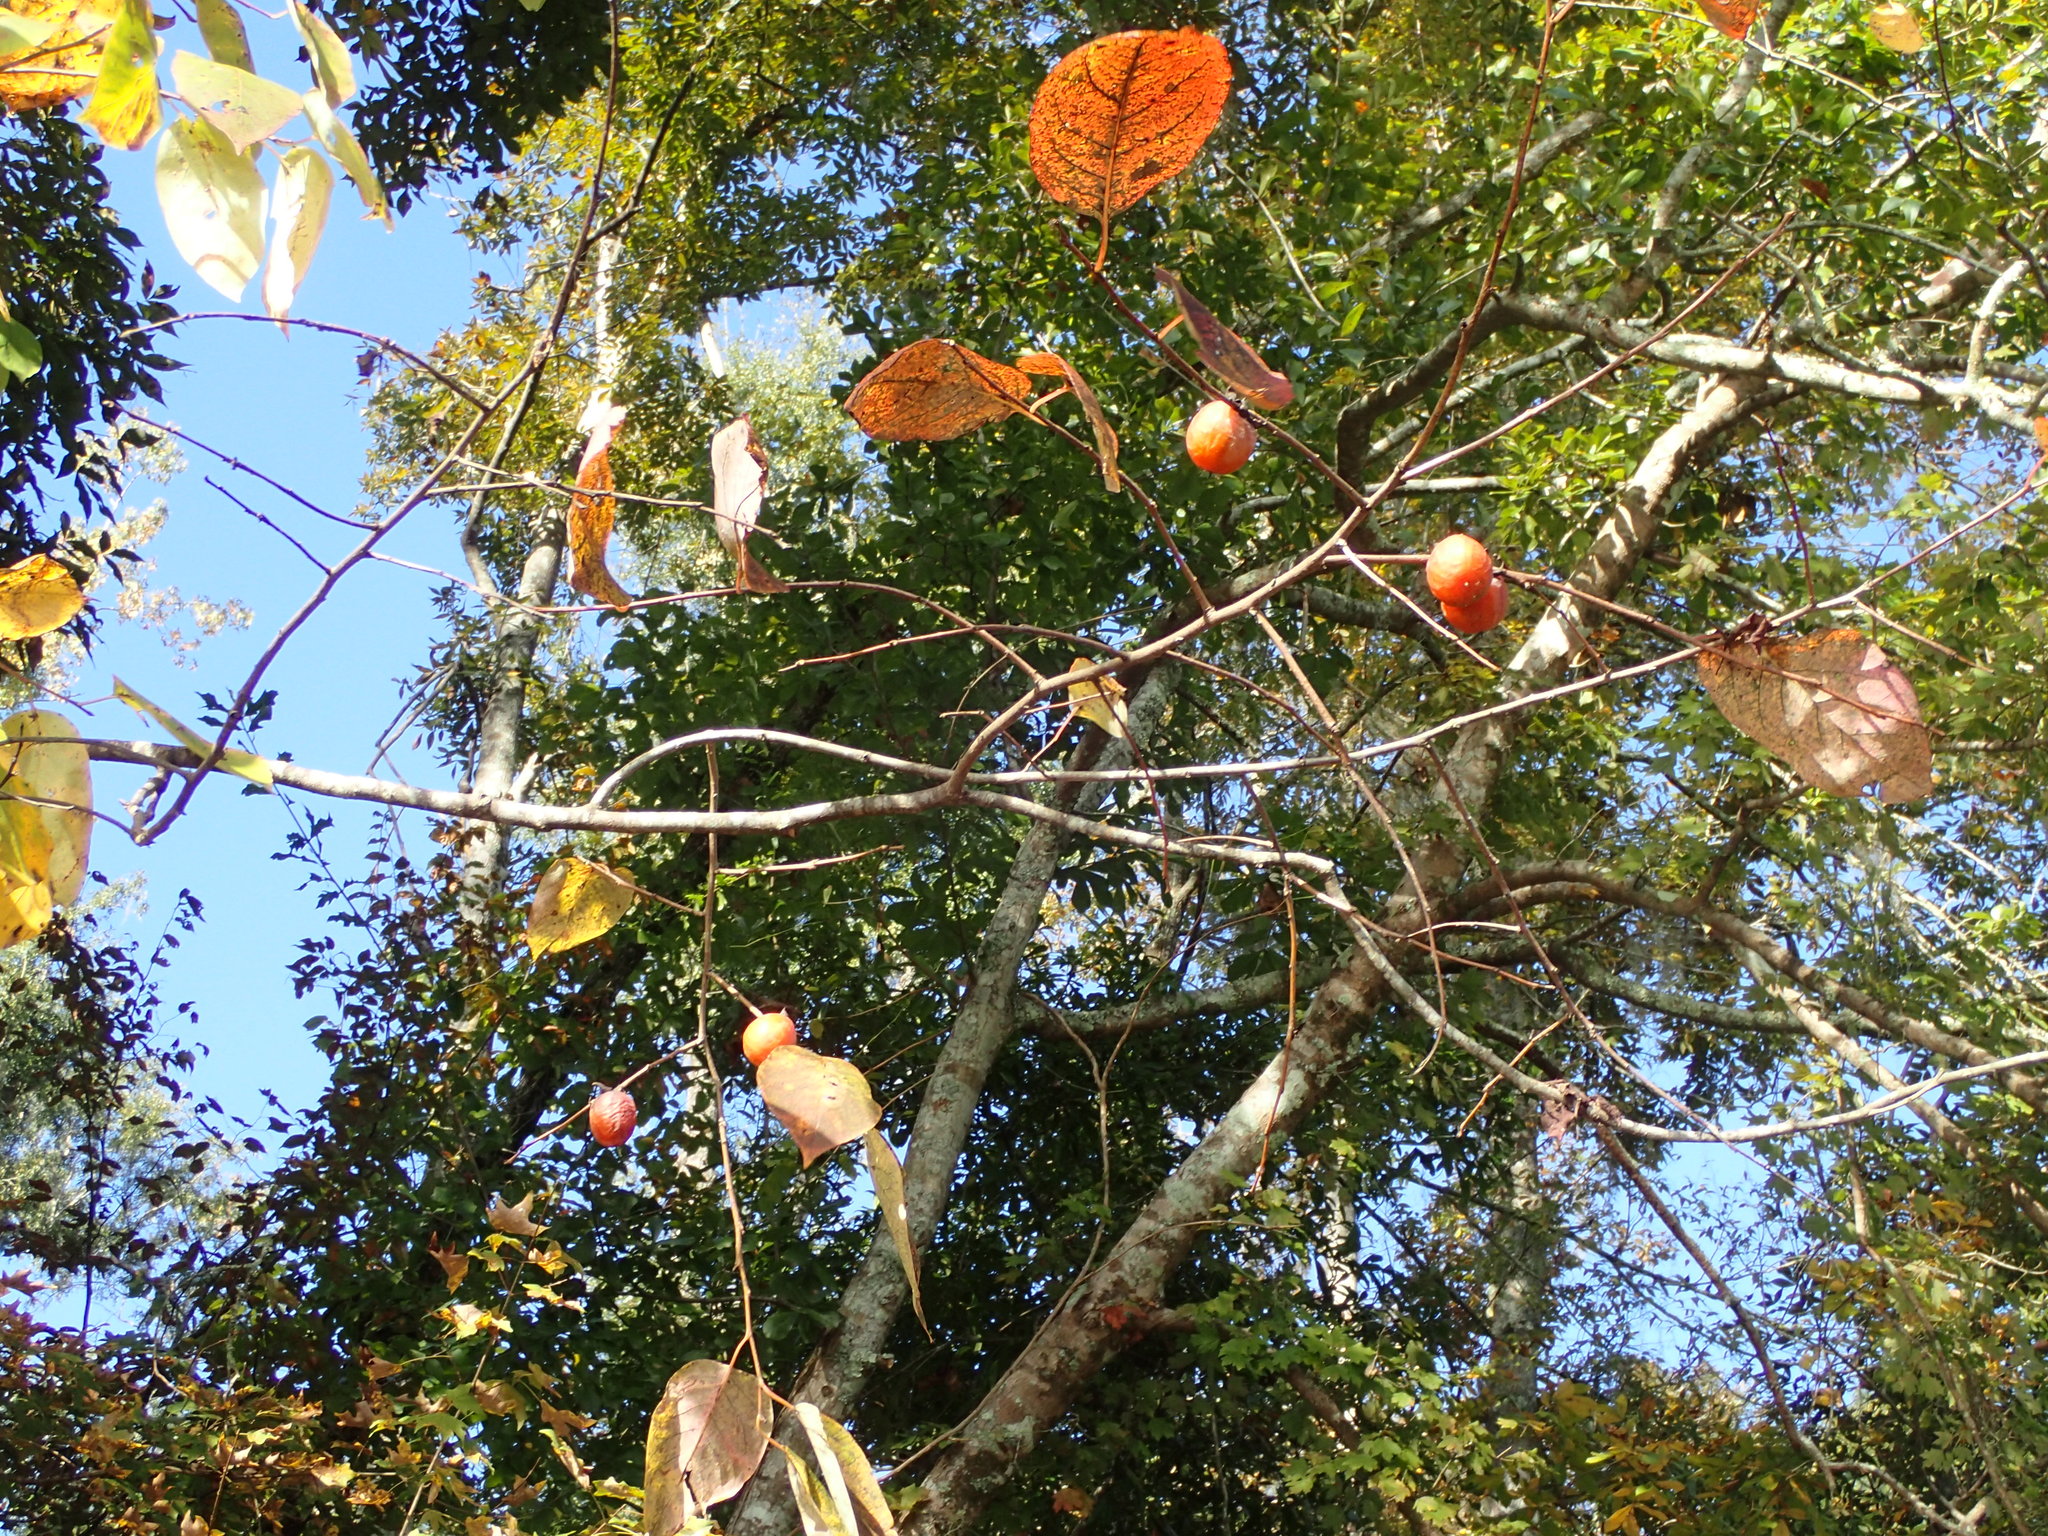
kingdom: Plantae
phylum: Tracheophyta
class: Magnoliopsida
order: Ericales
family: Ebenaceae
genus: Diospyros
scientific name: Diospyros virginiana
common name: Persimmon
